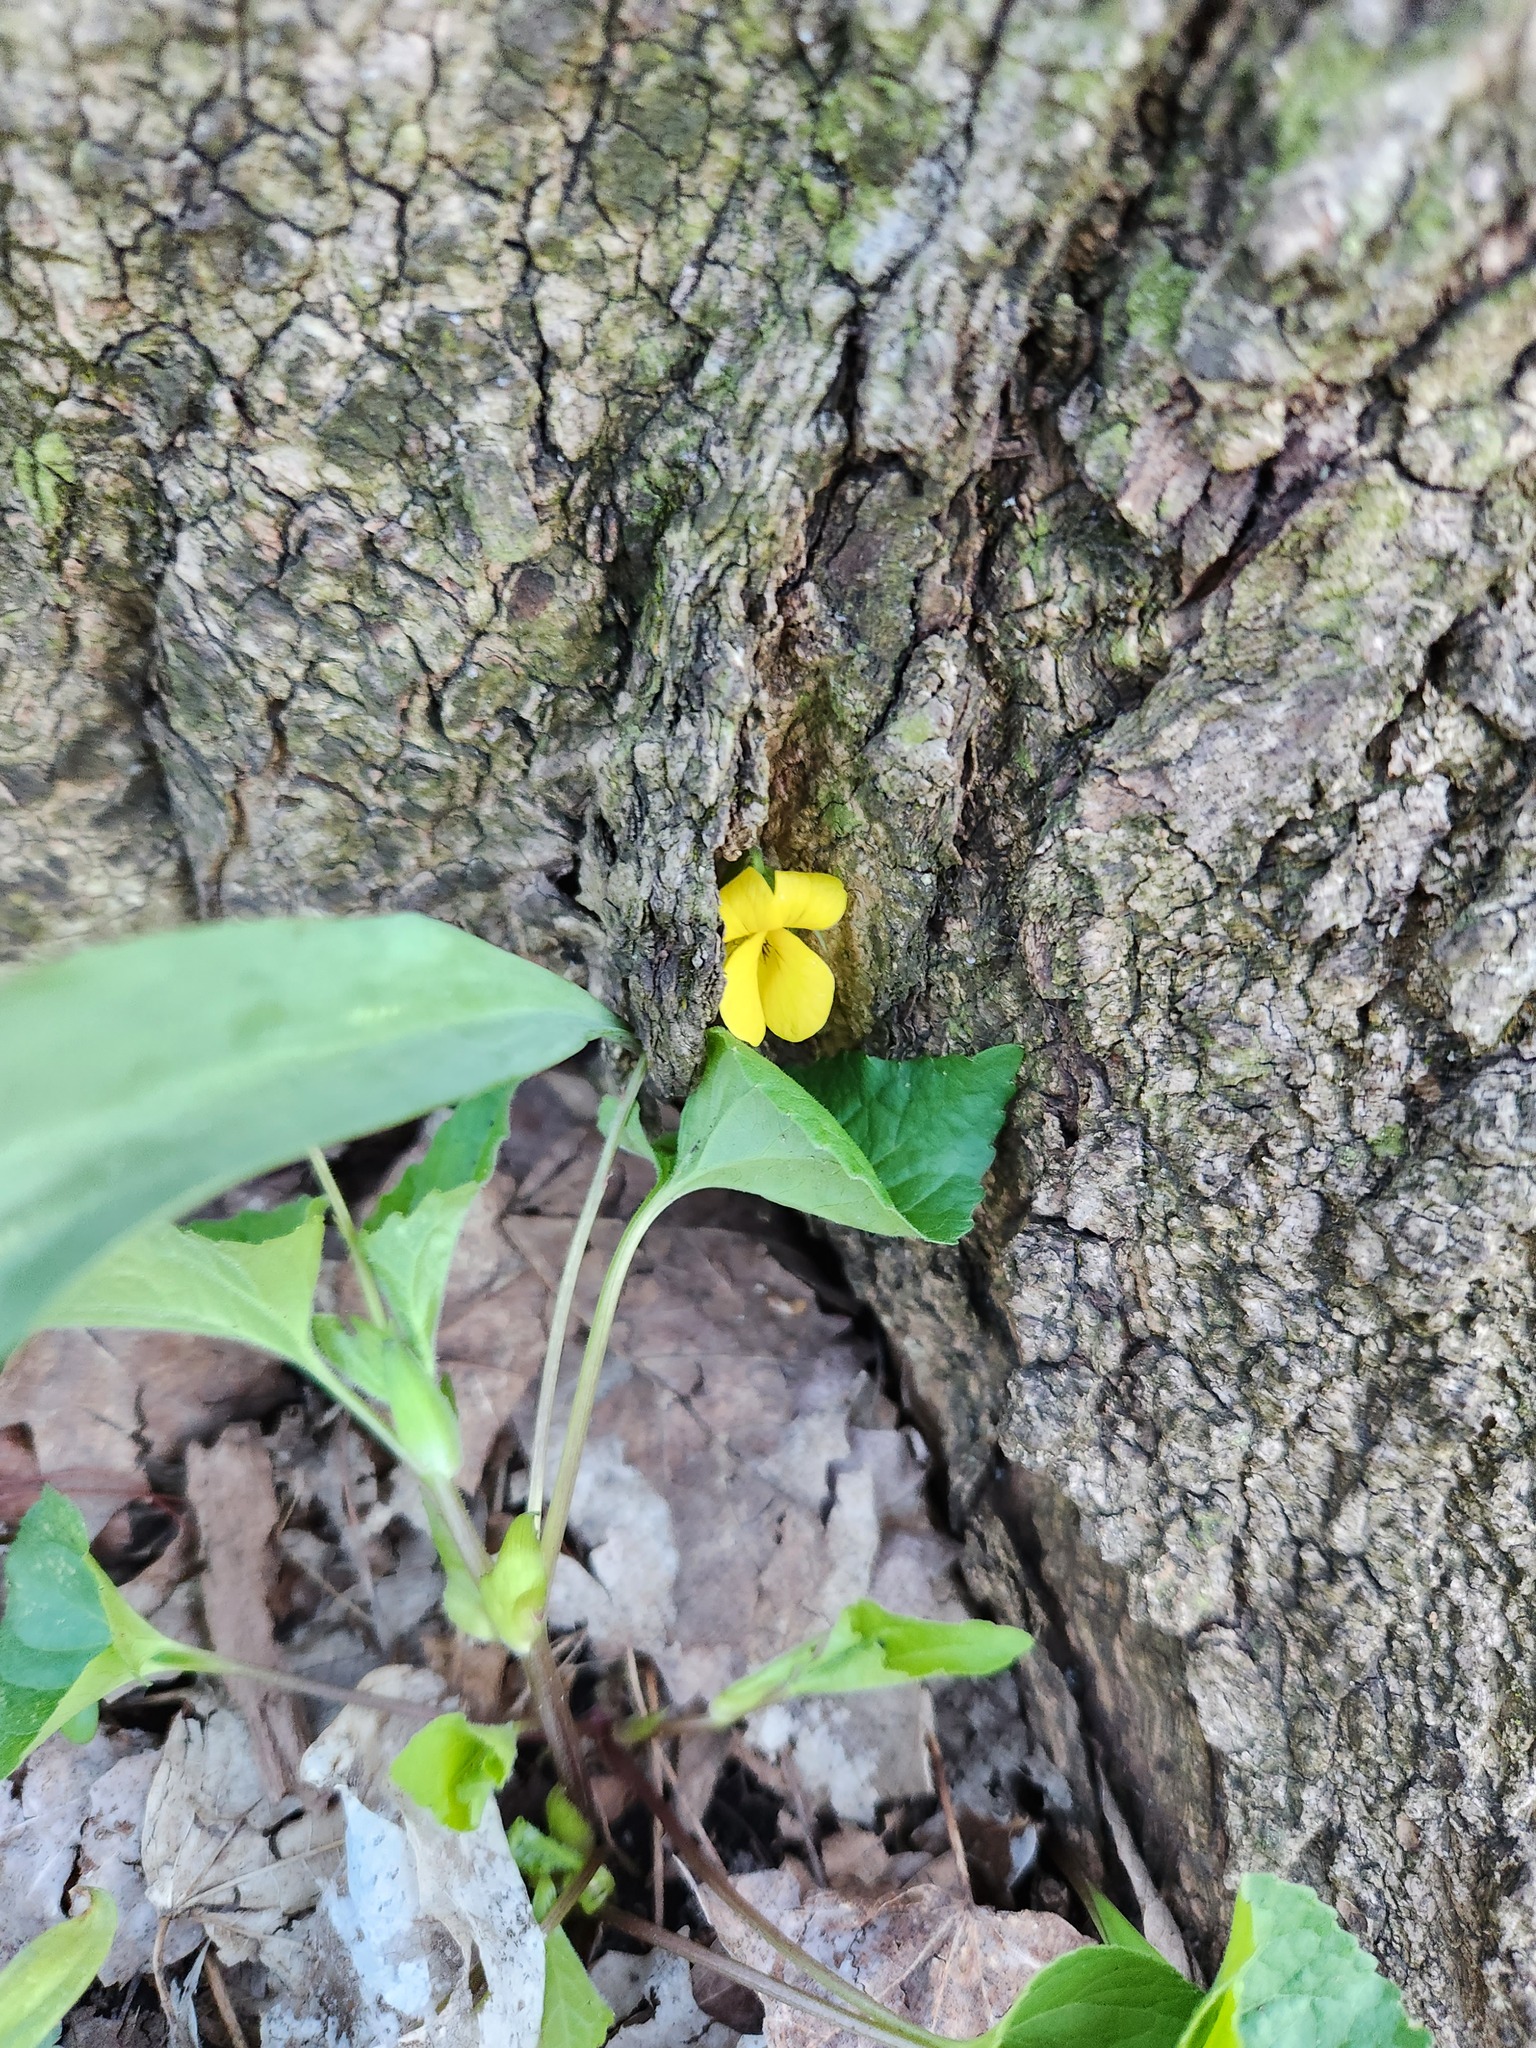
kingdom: Plantae
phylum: Tracheophyta
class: Magnoliopsida
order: Malpighiales
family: Violaceae
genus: Viola
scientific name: Viola eriocarpa
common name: Smooth yellow violet
